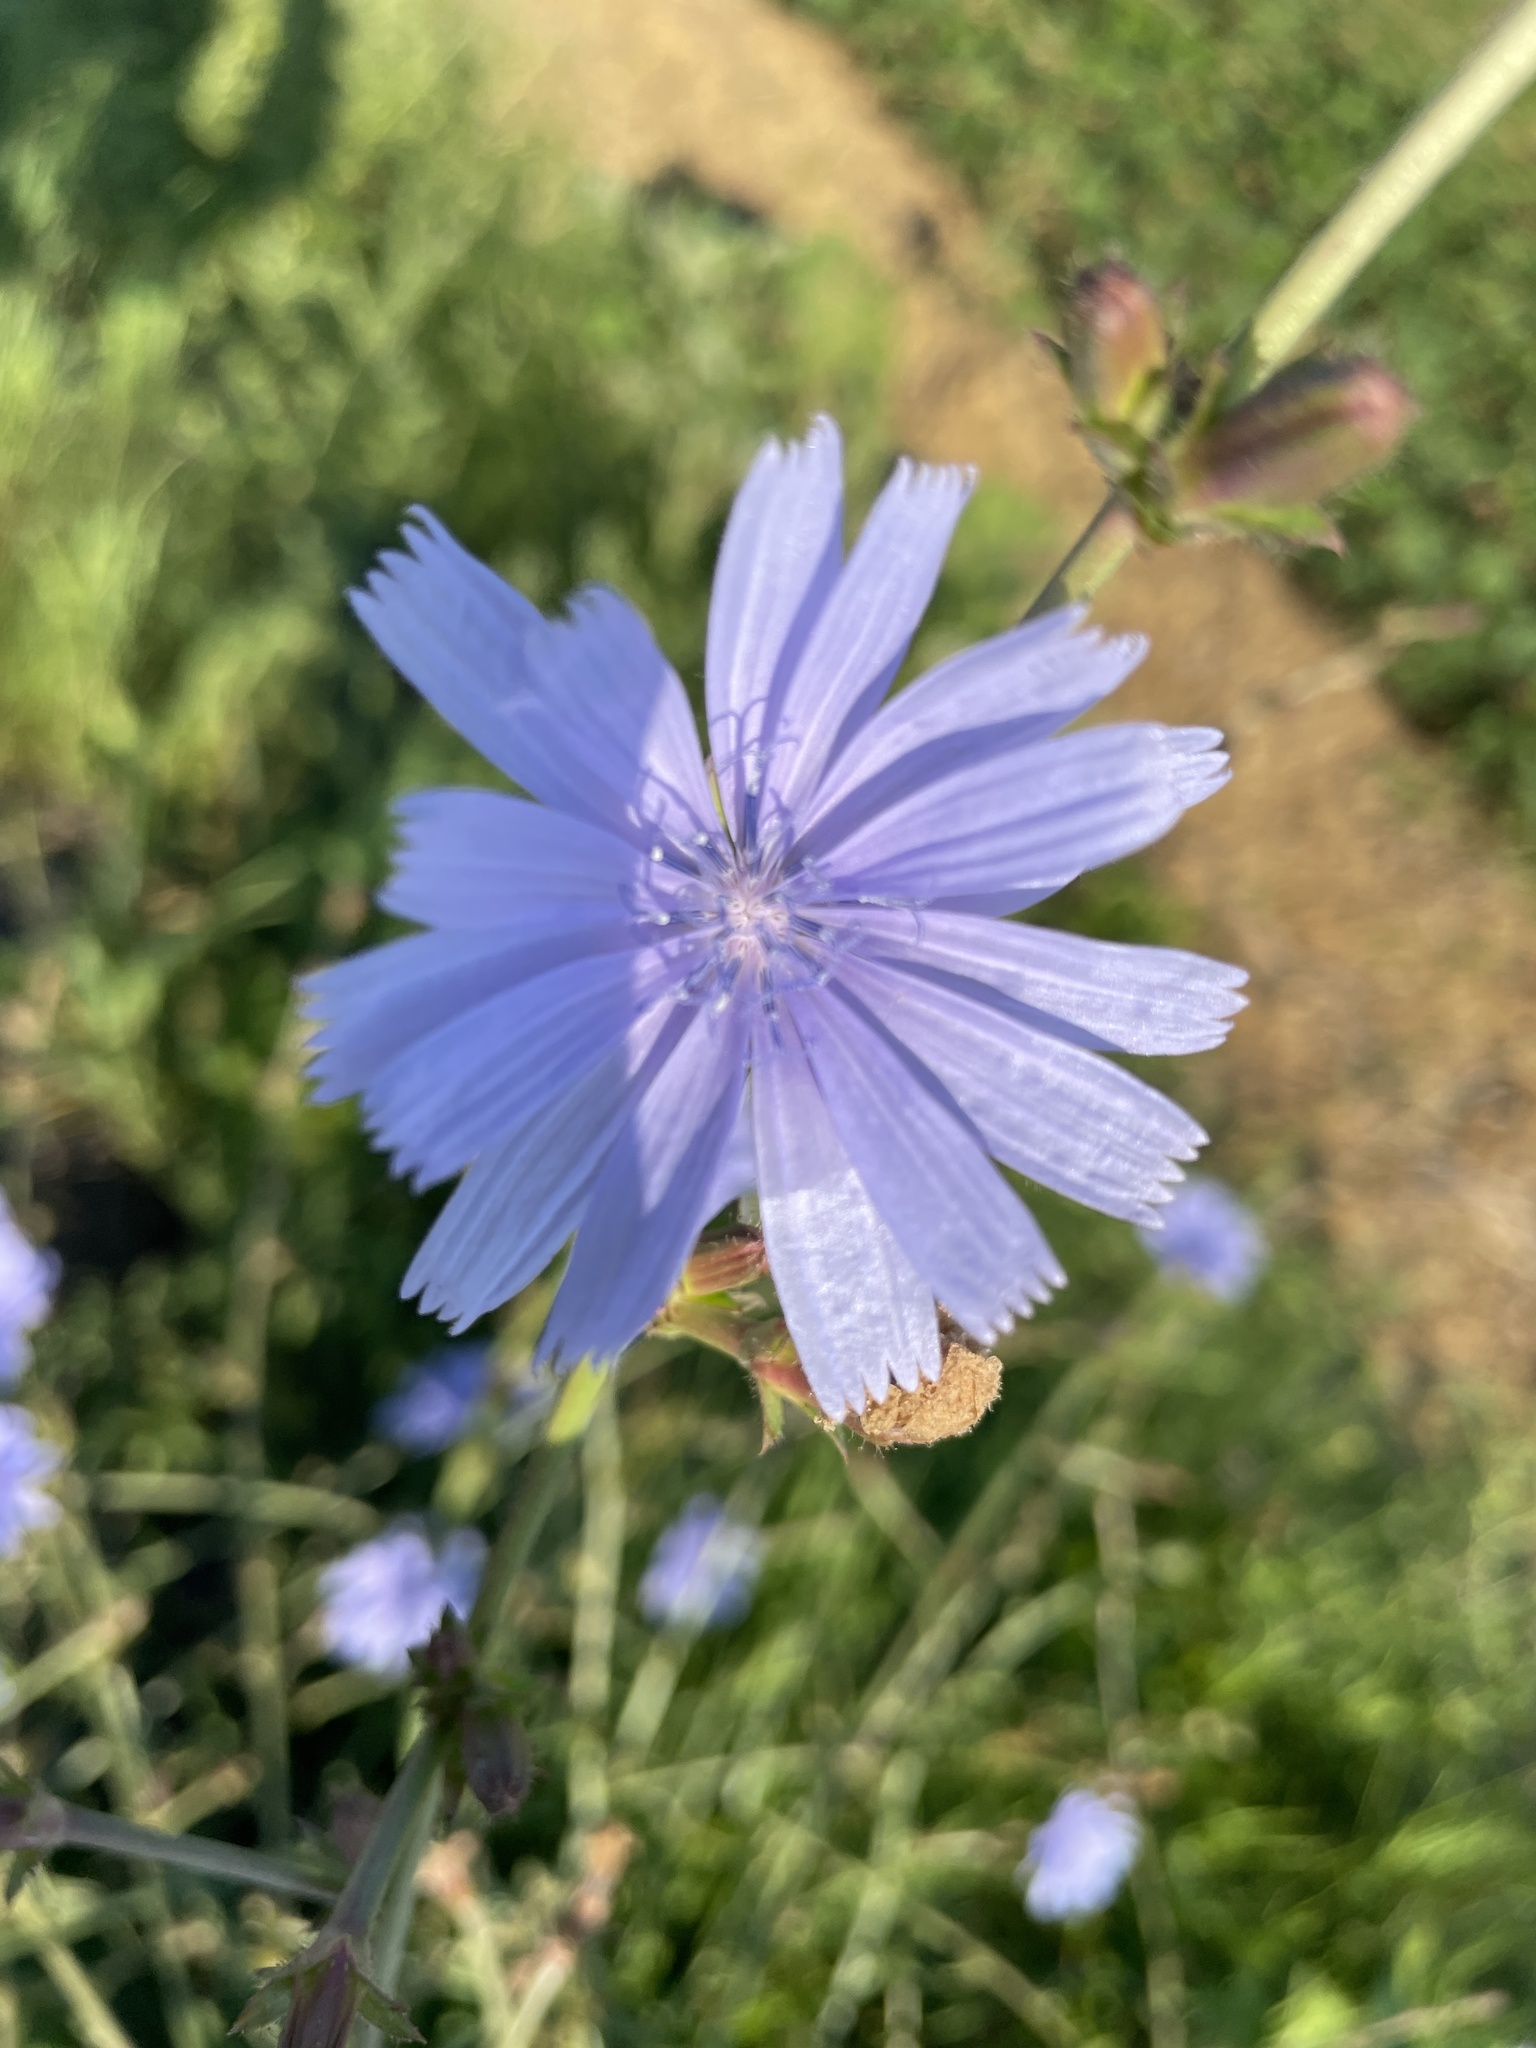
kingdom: Plantae
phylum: Tracheophyta
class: Magnoliopsida
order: Asterales
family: Asteraceae
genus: Cichorium
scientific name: Cichorium intybus
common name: Chicory
